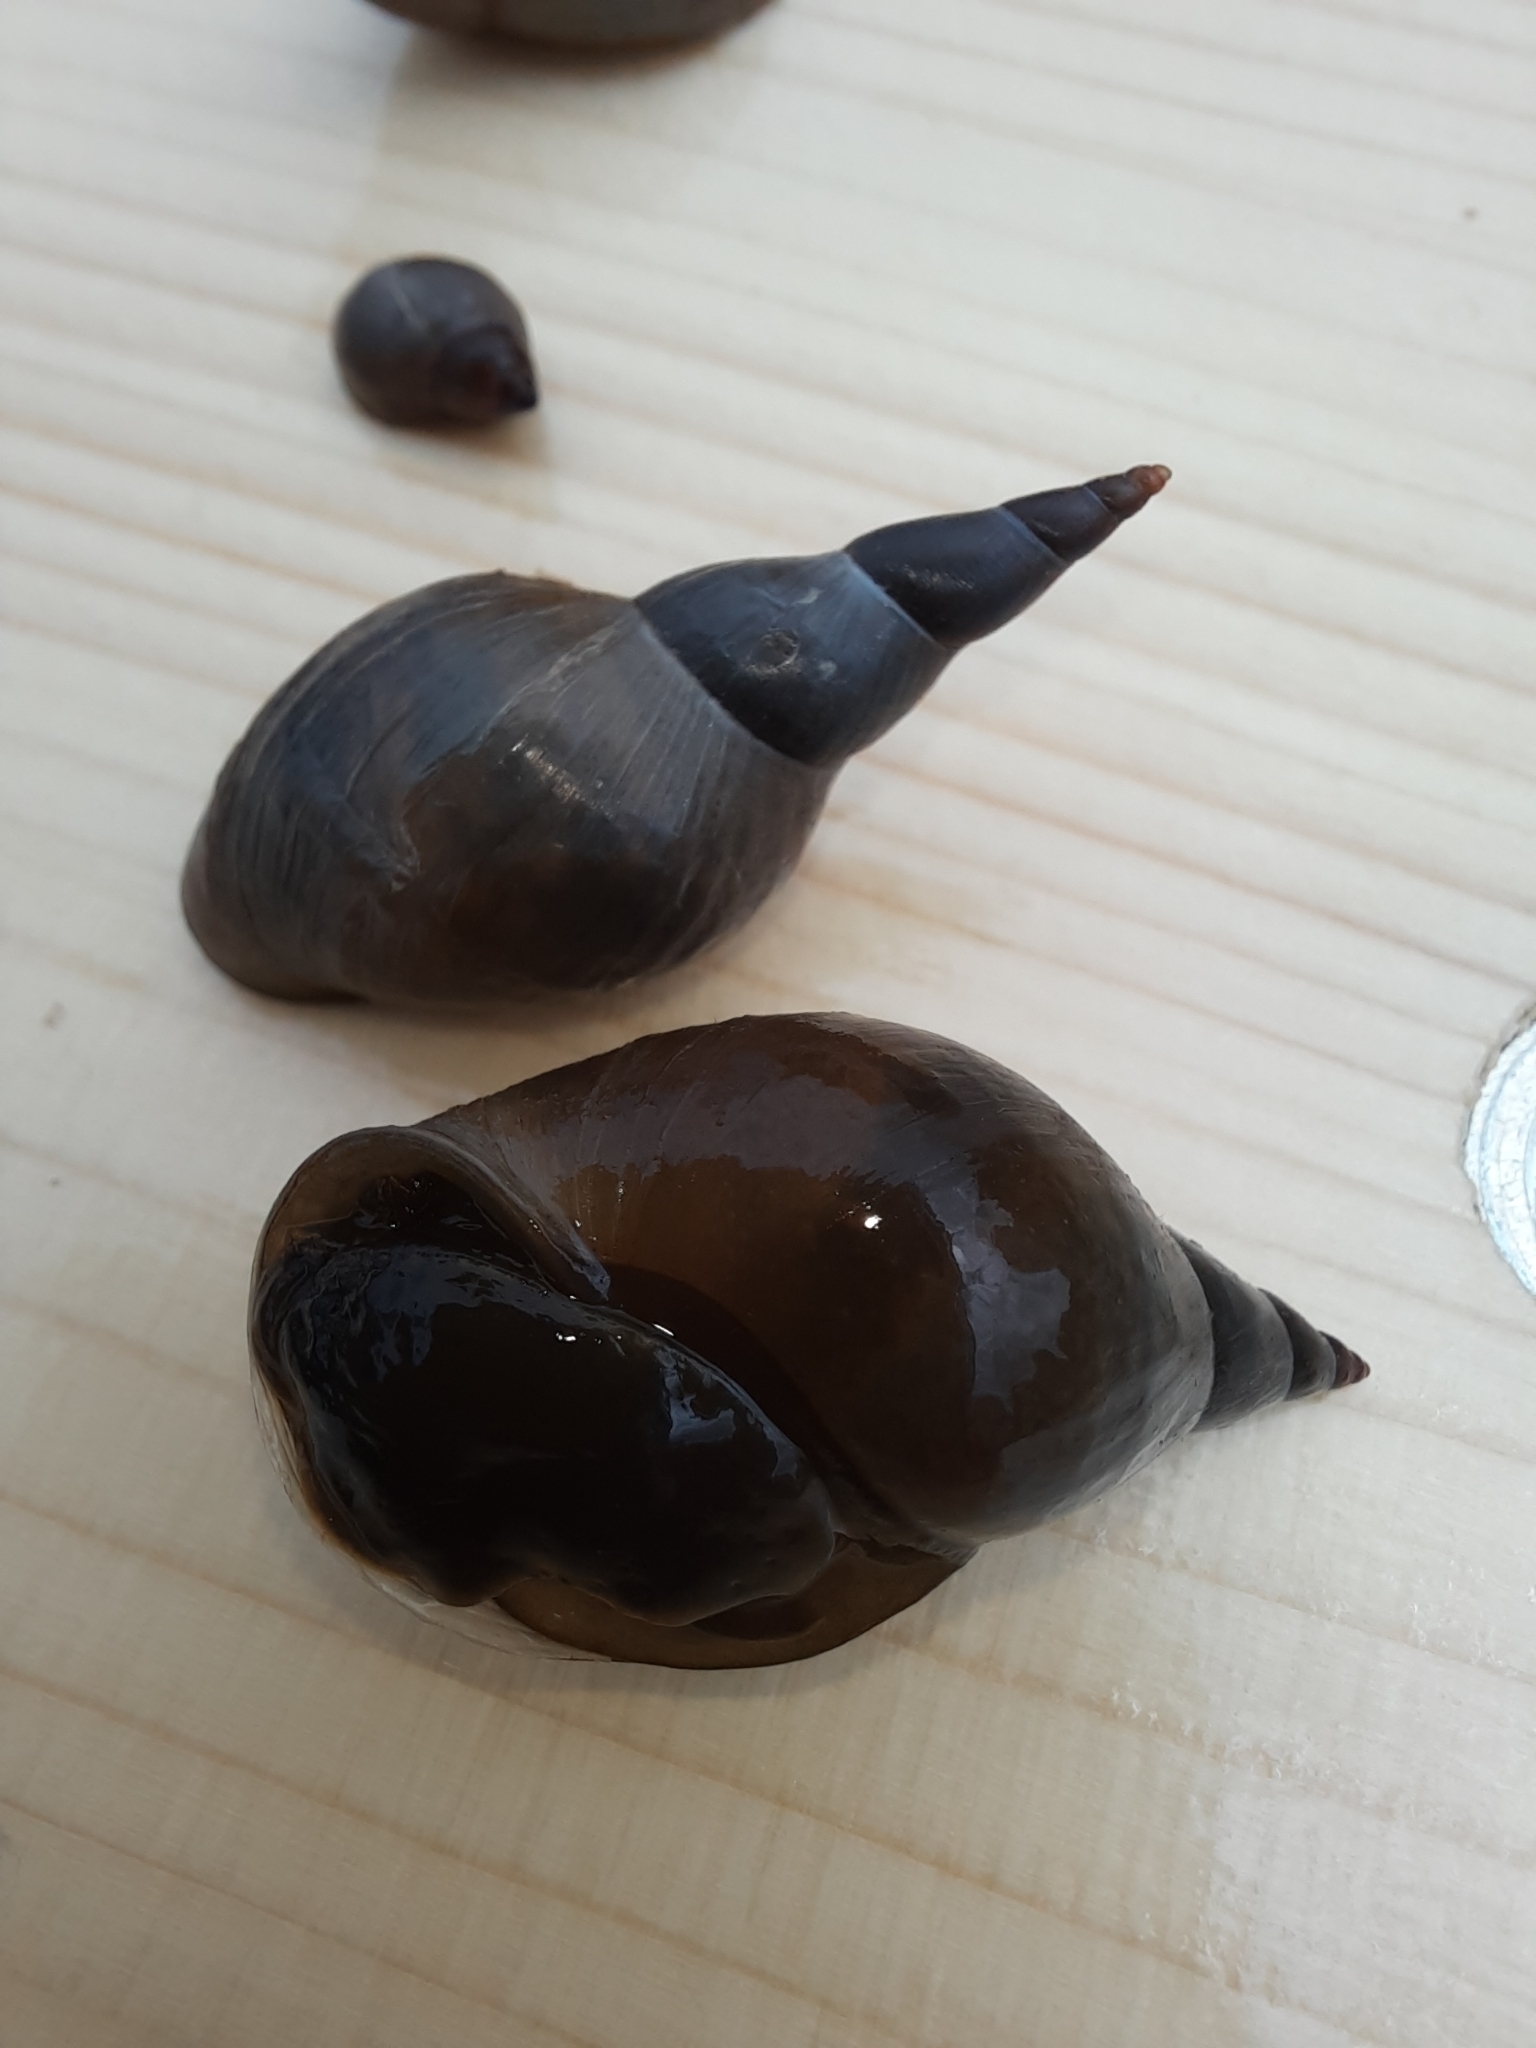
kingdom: Animalia
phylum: Mollusca
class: Gastropoda
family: Lymnaeidae
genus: Lymnaea
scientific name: Lymnaea stagnalis
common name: Great pond snail
